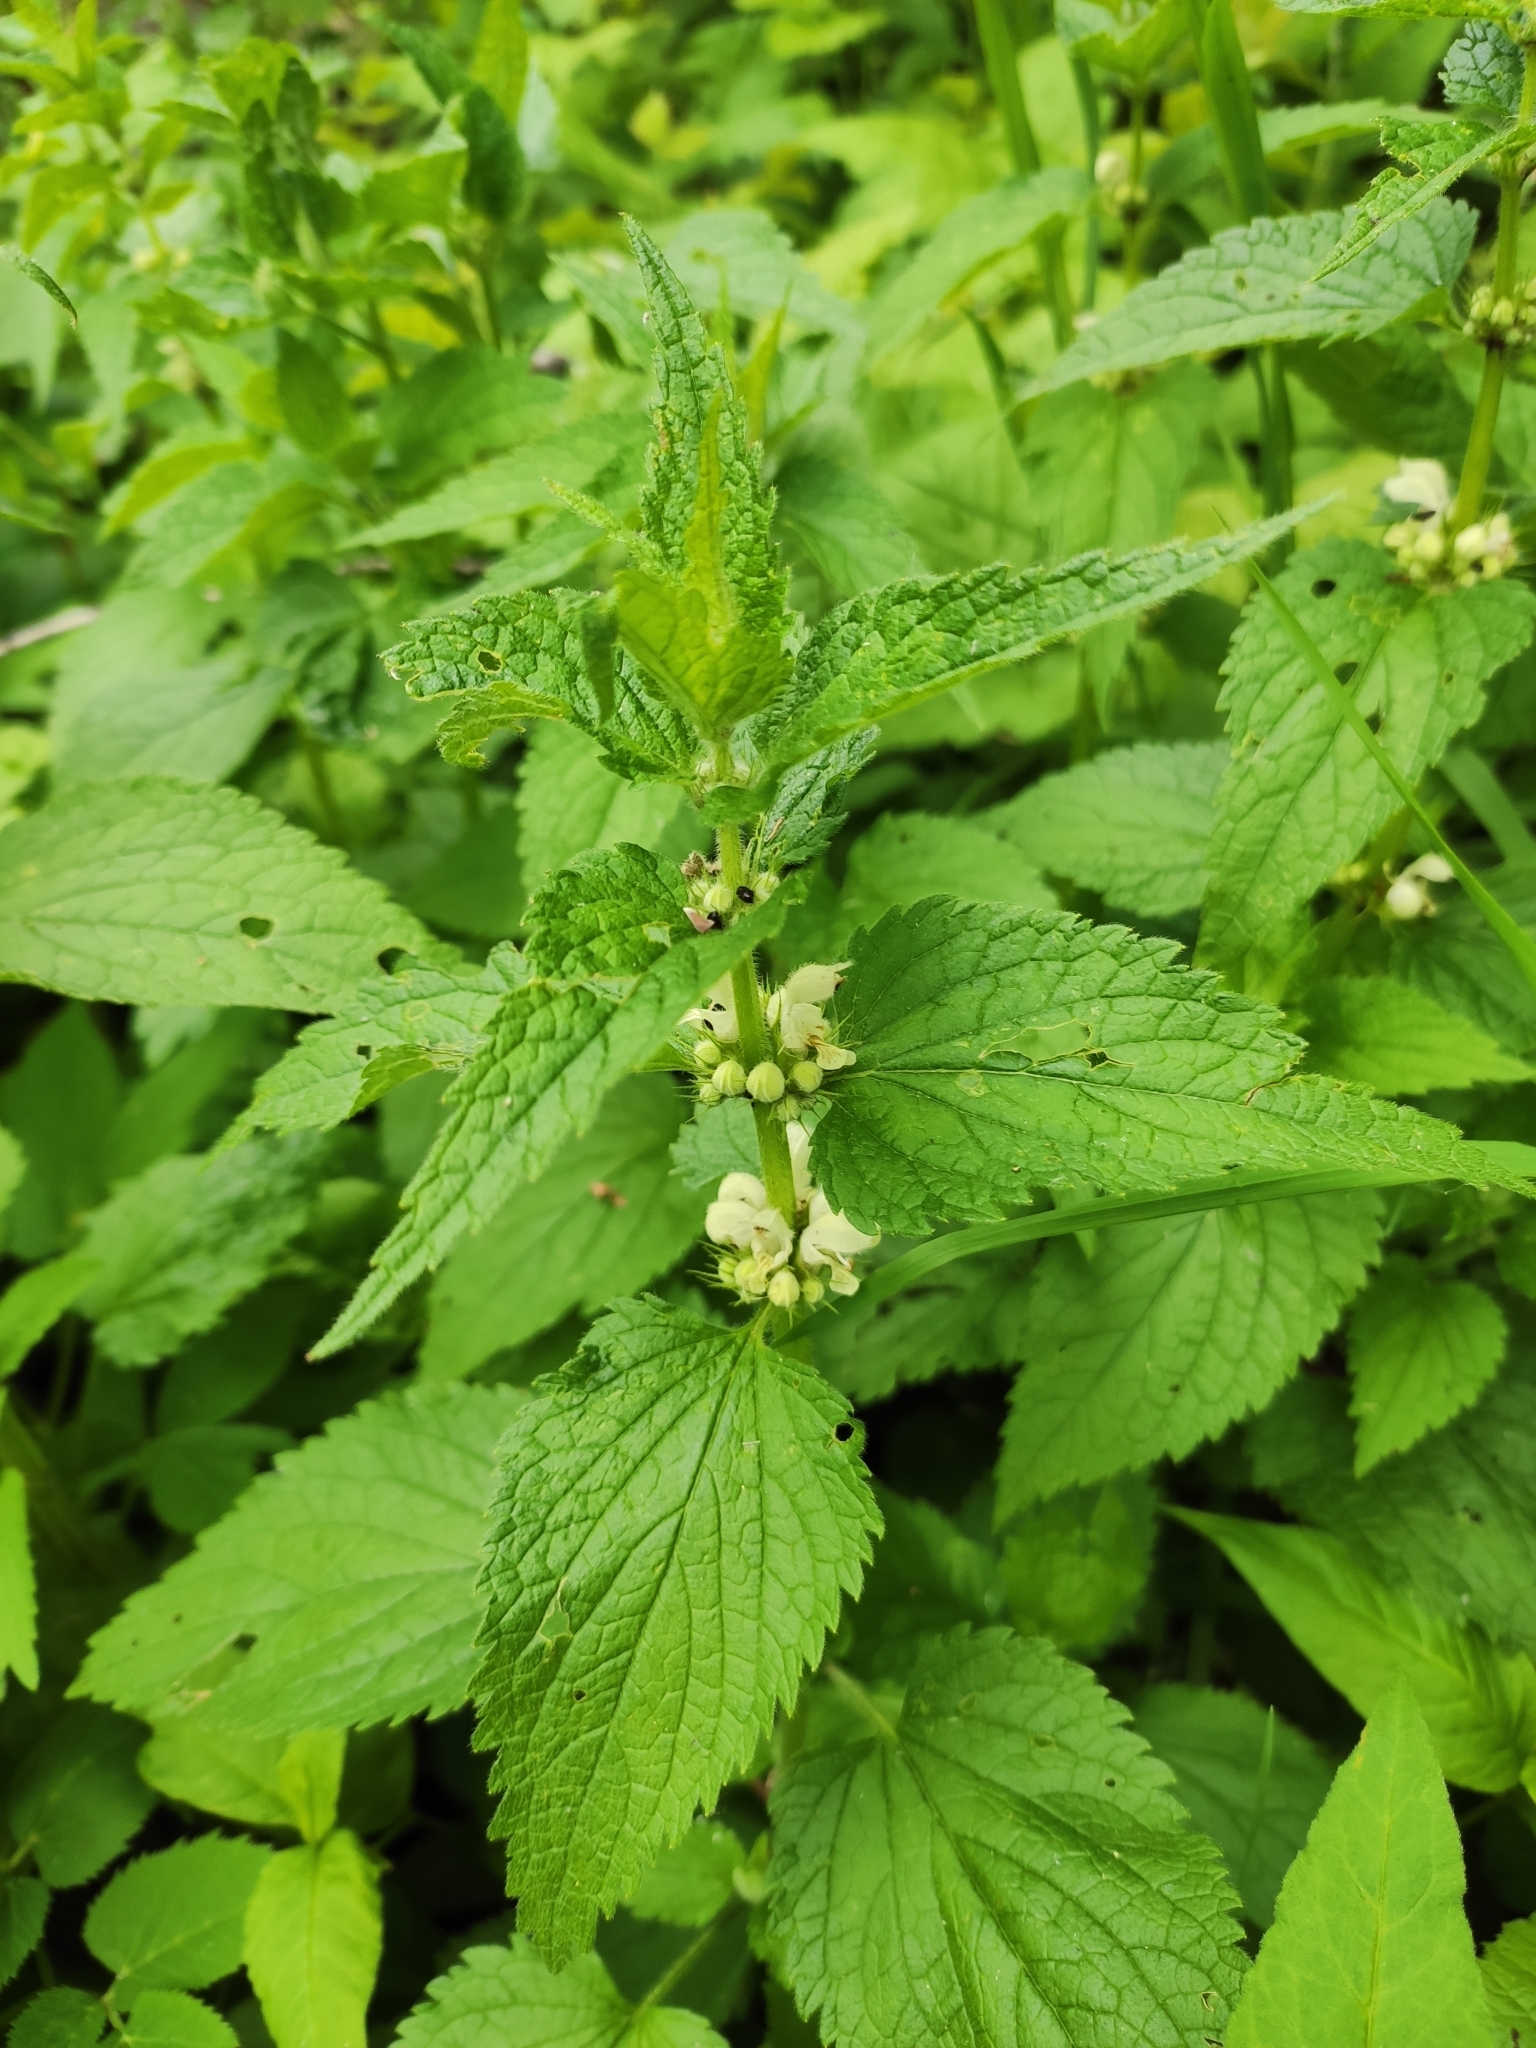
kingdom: Plantae
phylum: Tracheophyta
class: Magnoliopsida
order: Lamiales
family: Lamiaceae
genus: Lamium
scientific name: Lamium album
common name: White dead-nettle
